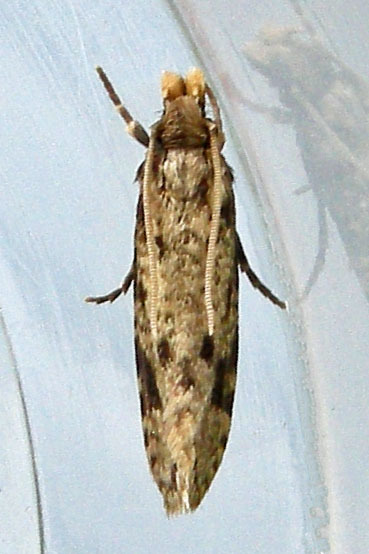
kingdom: Animalia
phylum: Arthropoda
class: Insecta
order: Lepidoptera
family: Tineidae
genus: Amydria
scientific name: Amydria effrentella
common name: Brown-blotched amydria moth
